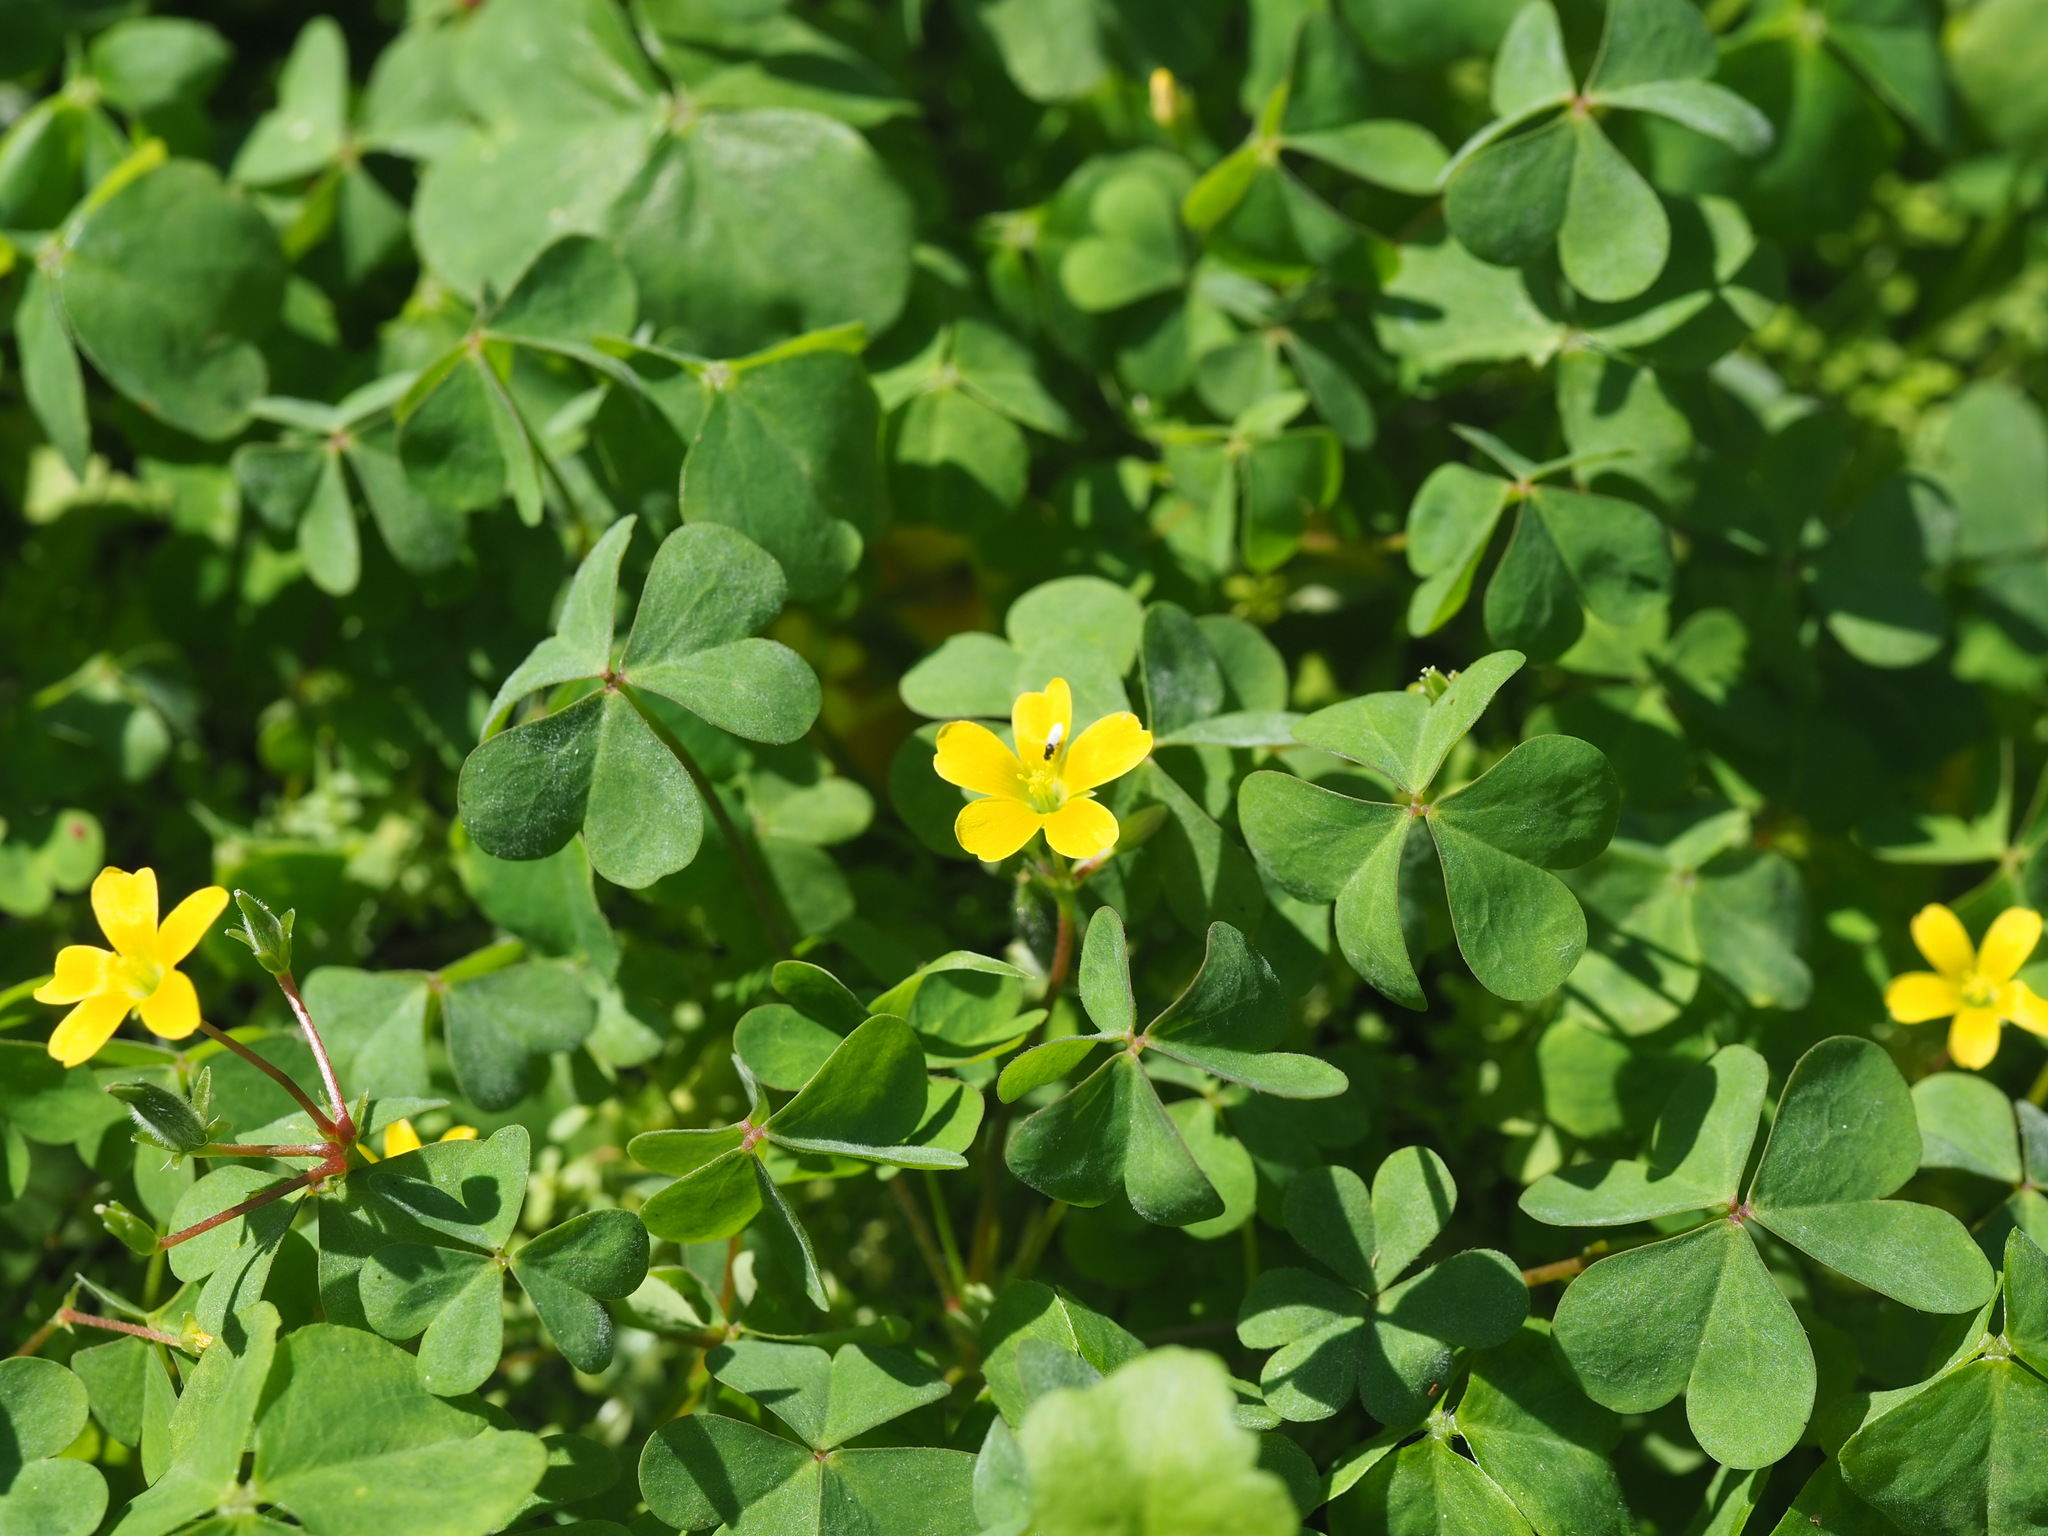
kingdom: Plantae
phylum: Tracheophyta
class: Magnoliopsida
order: Oxalidales
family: Oxalidaceae
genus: Oxalis
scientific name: Oxalis corniculata
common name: Procumbent yellow-sorrel
